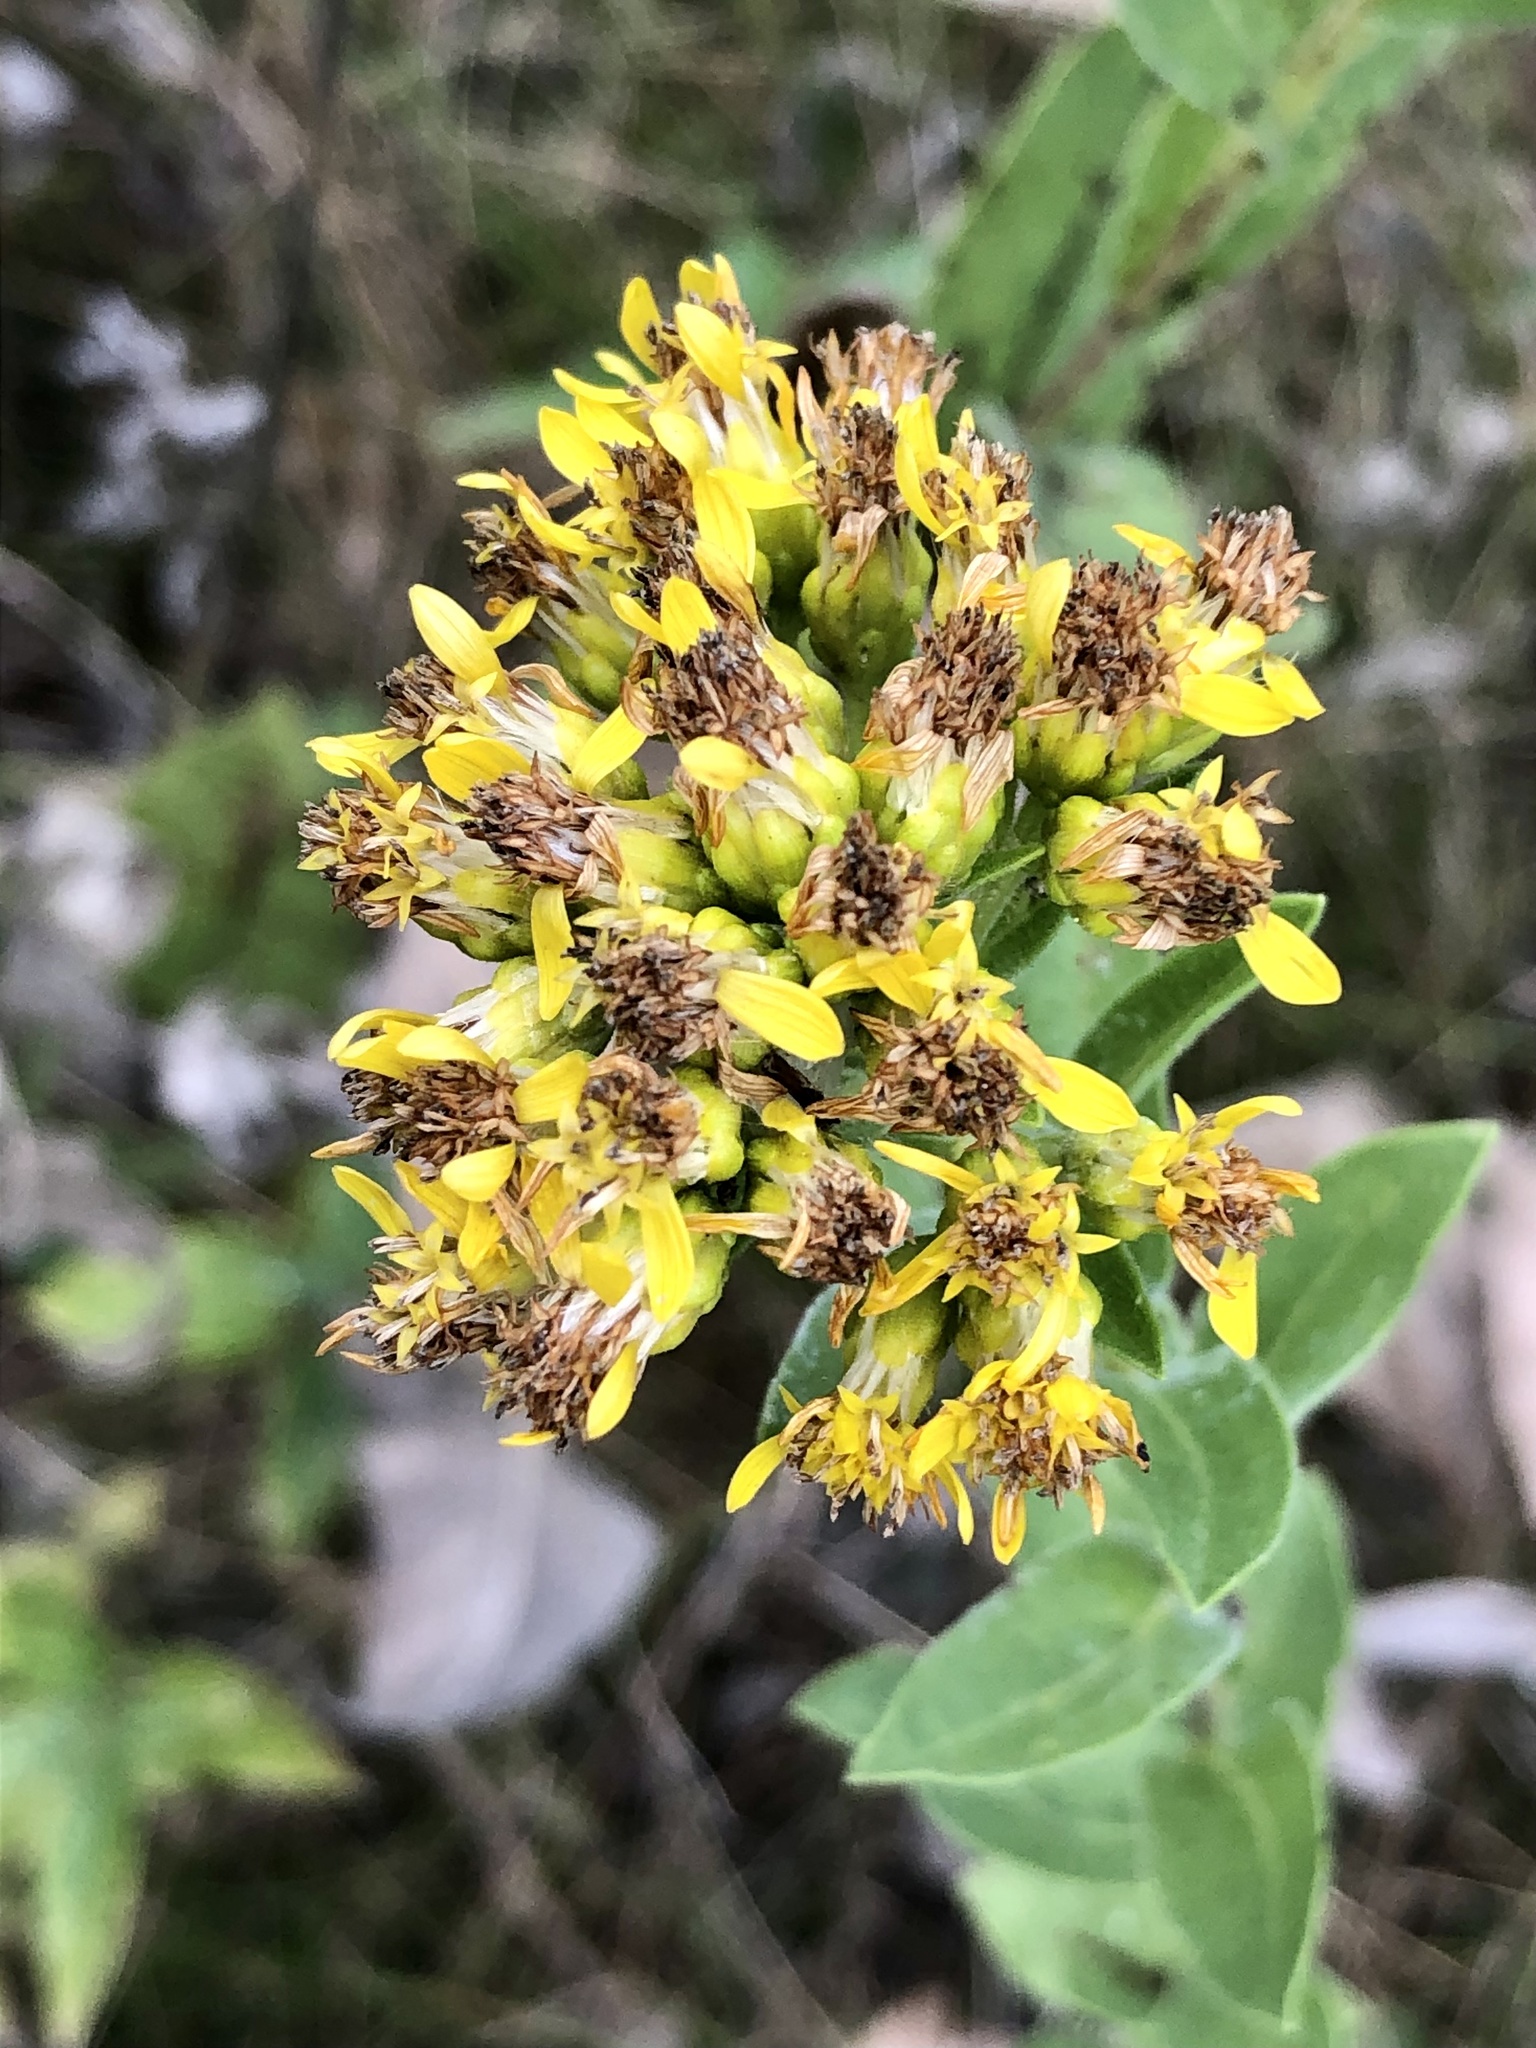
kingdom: Plantae
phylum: Tracheophyta
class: Magnoliopsida
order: Asterales
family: Asteraceae
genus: Solidago
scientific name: Solidago rigida
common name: Rigid goldenrod
